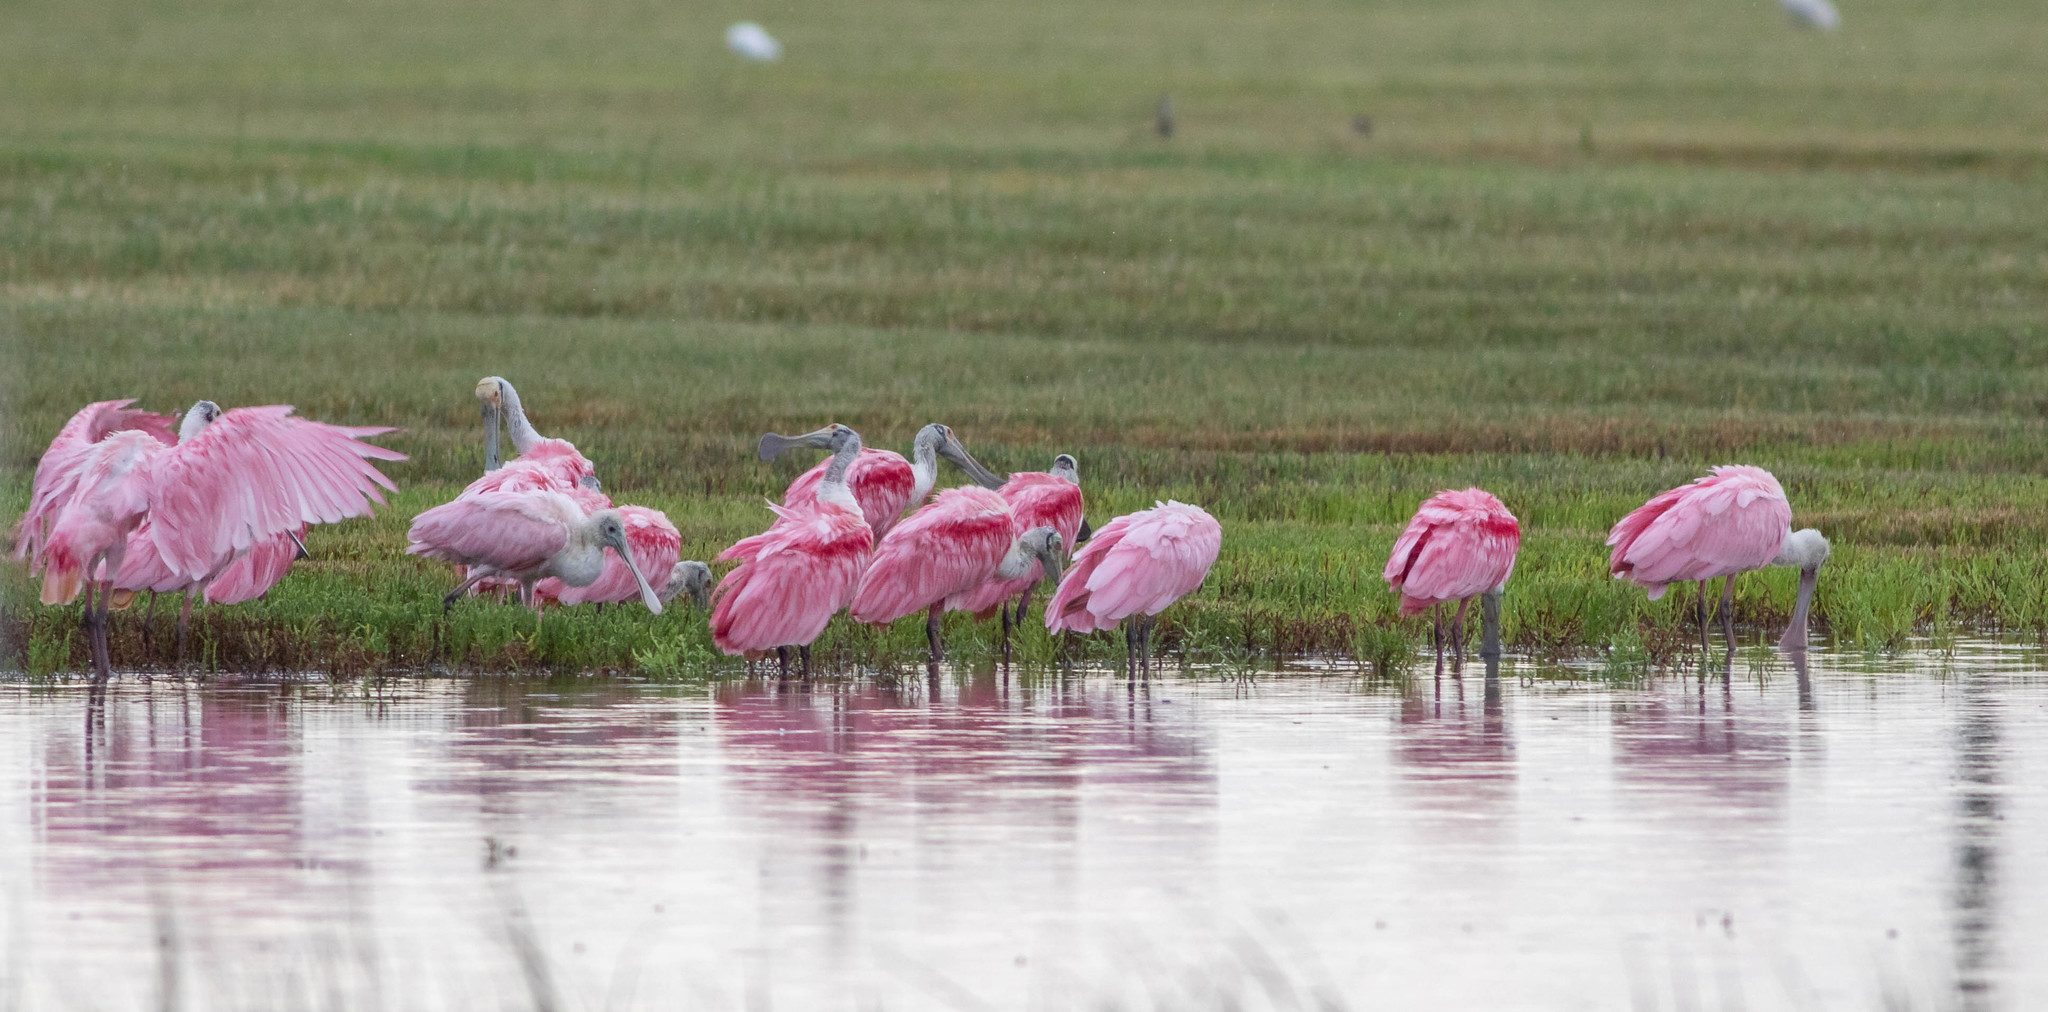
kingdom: Animalia
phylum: Chordata
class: Aves
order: Pelecaniformes
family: Threskiornithidae
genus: Platalea
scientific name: Platalea ajaja
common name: Roseate spoonbill
